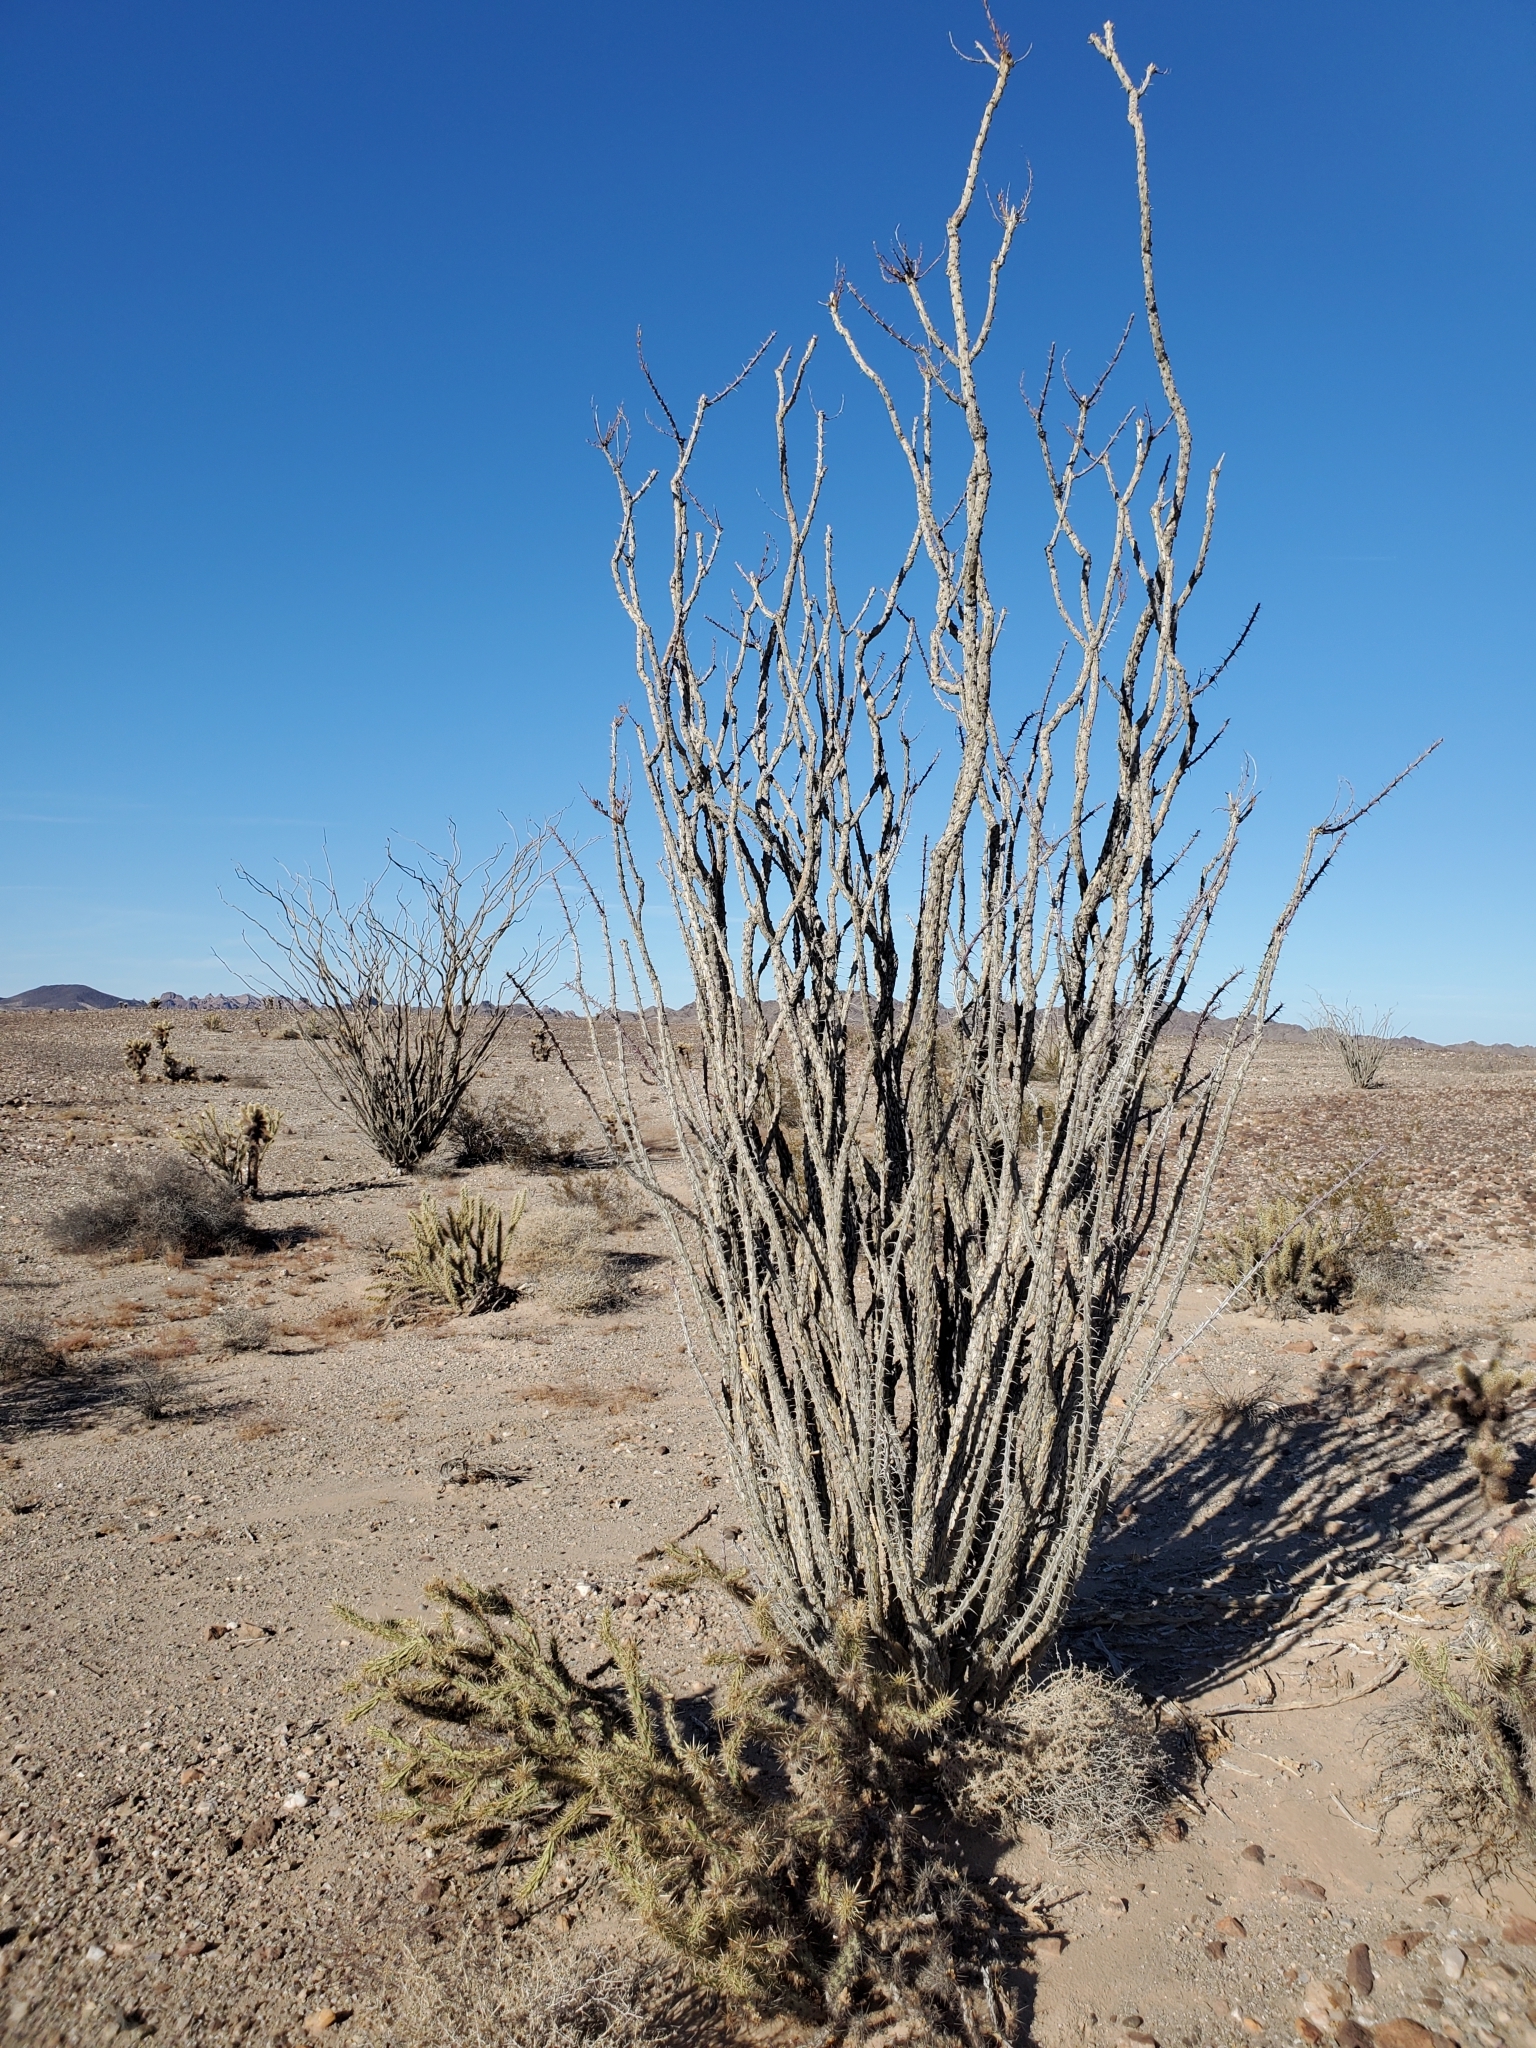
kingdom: Plantae
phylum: Tracheophyta
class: Magnoliopsida
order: Ericales
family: Fouquieriaceae
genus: Fouquieria
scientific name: Fouquieria splendens
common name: Vine-cactus
